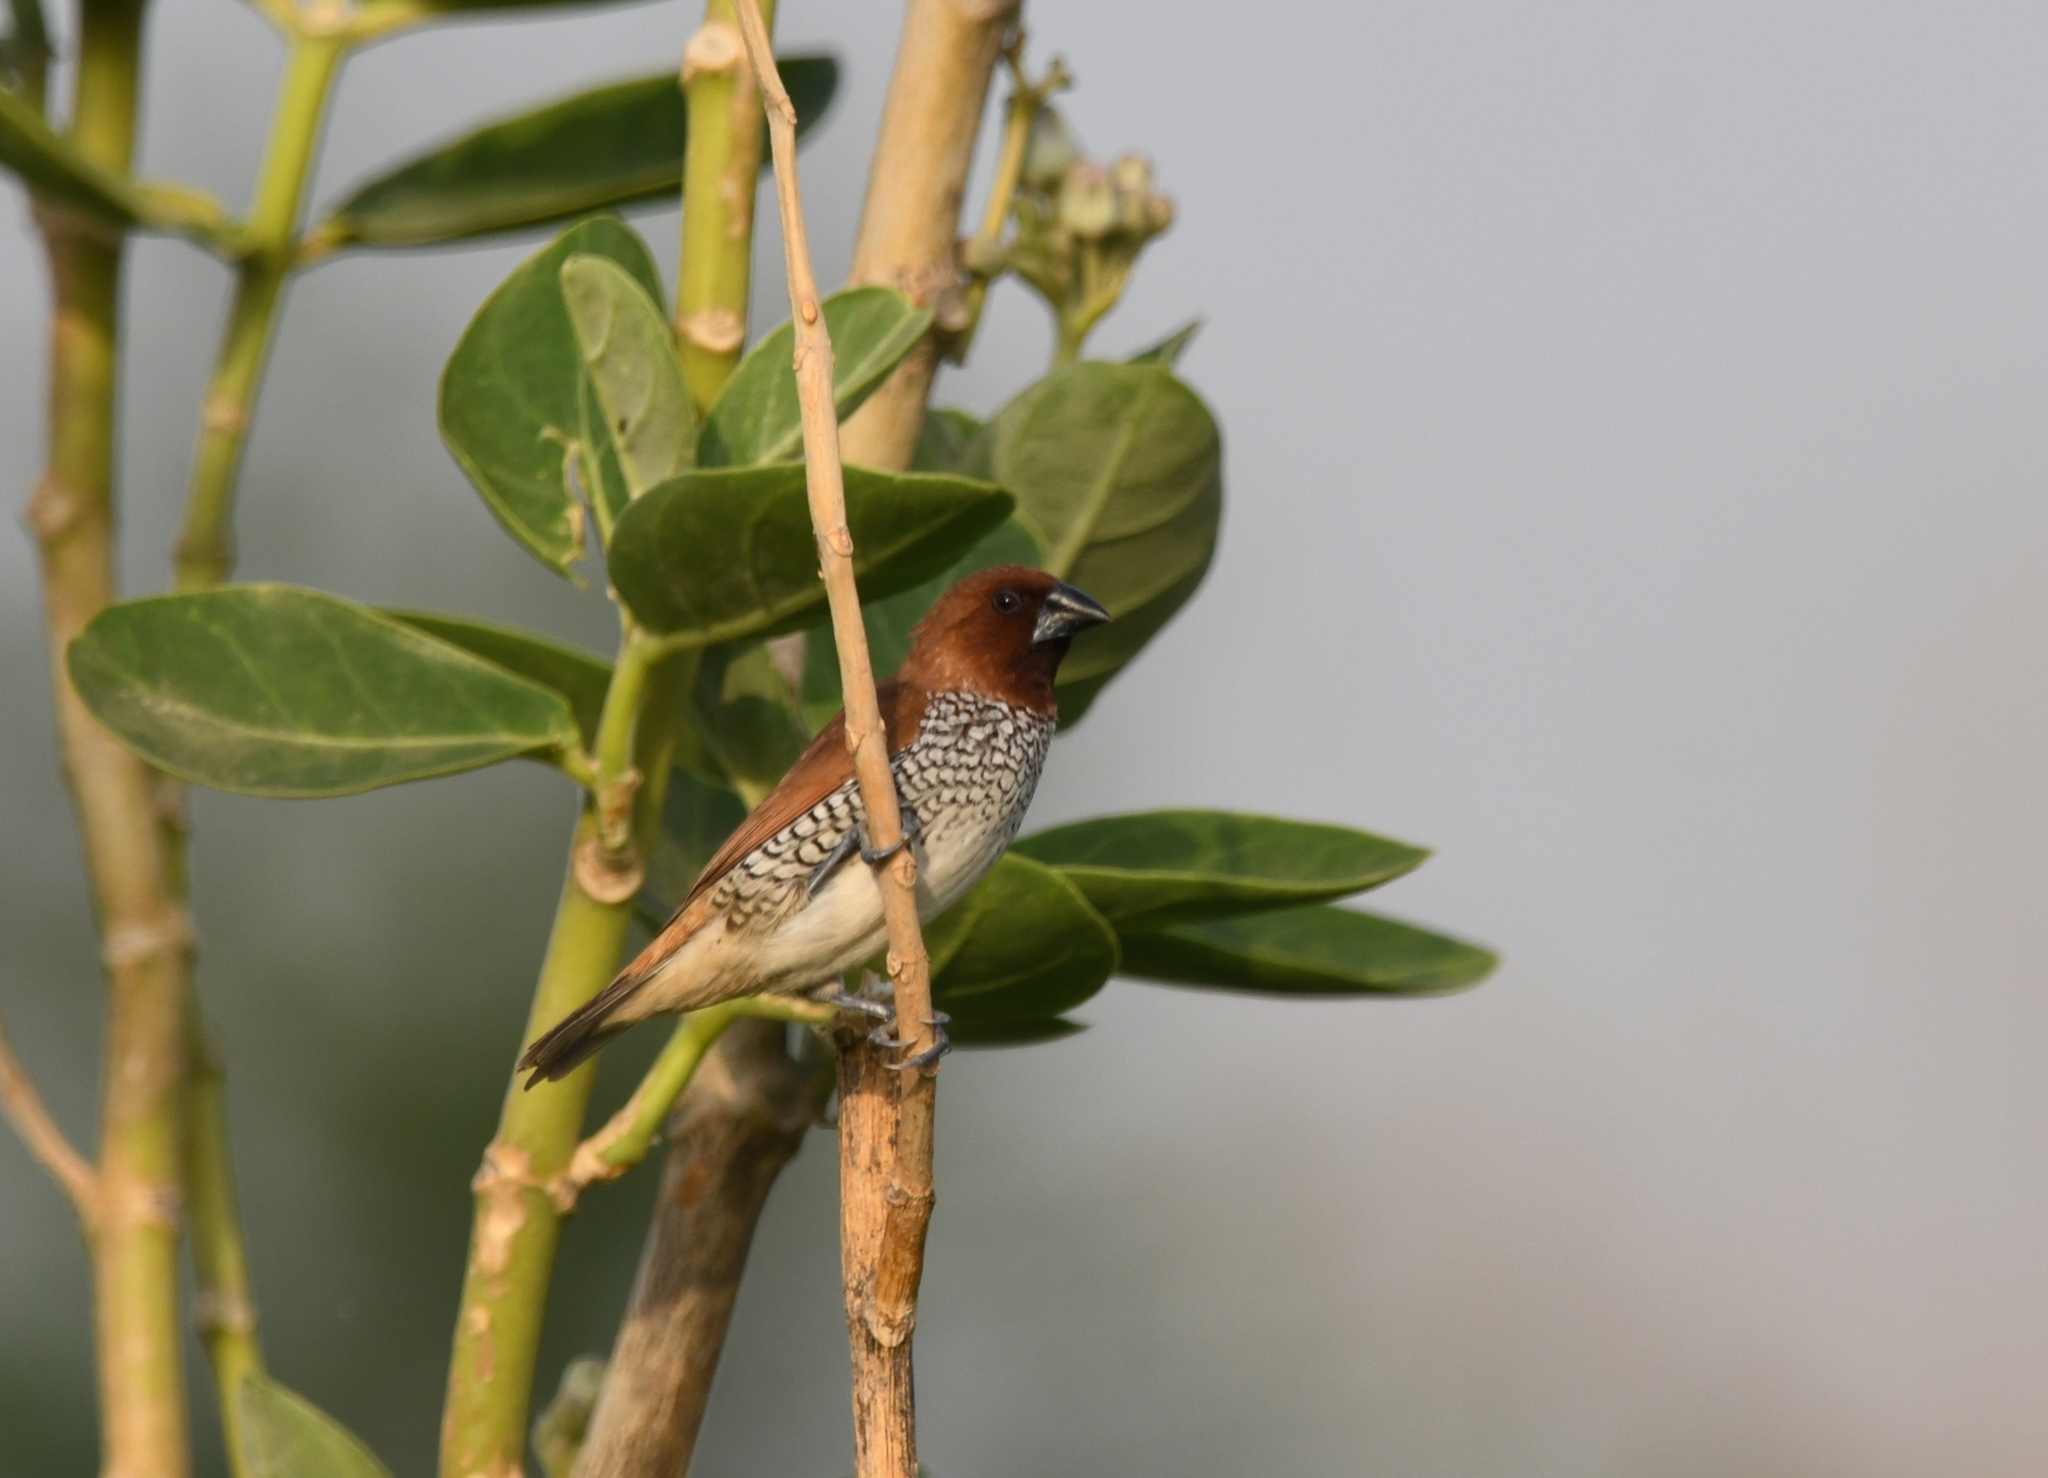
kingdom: Animalia
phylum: Chordata
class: Aves
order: Passeriformes
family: Estrildidae
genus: Lonchura
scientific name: Lonchura punctulata
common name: Scaly-breasted munia
